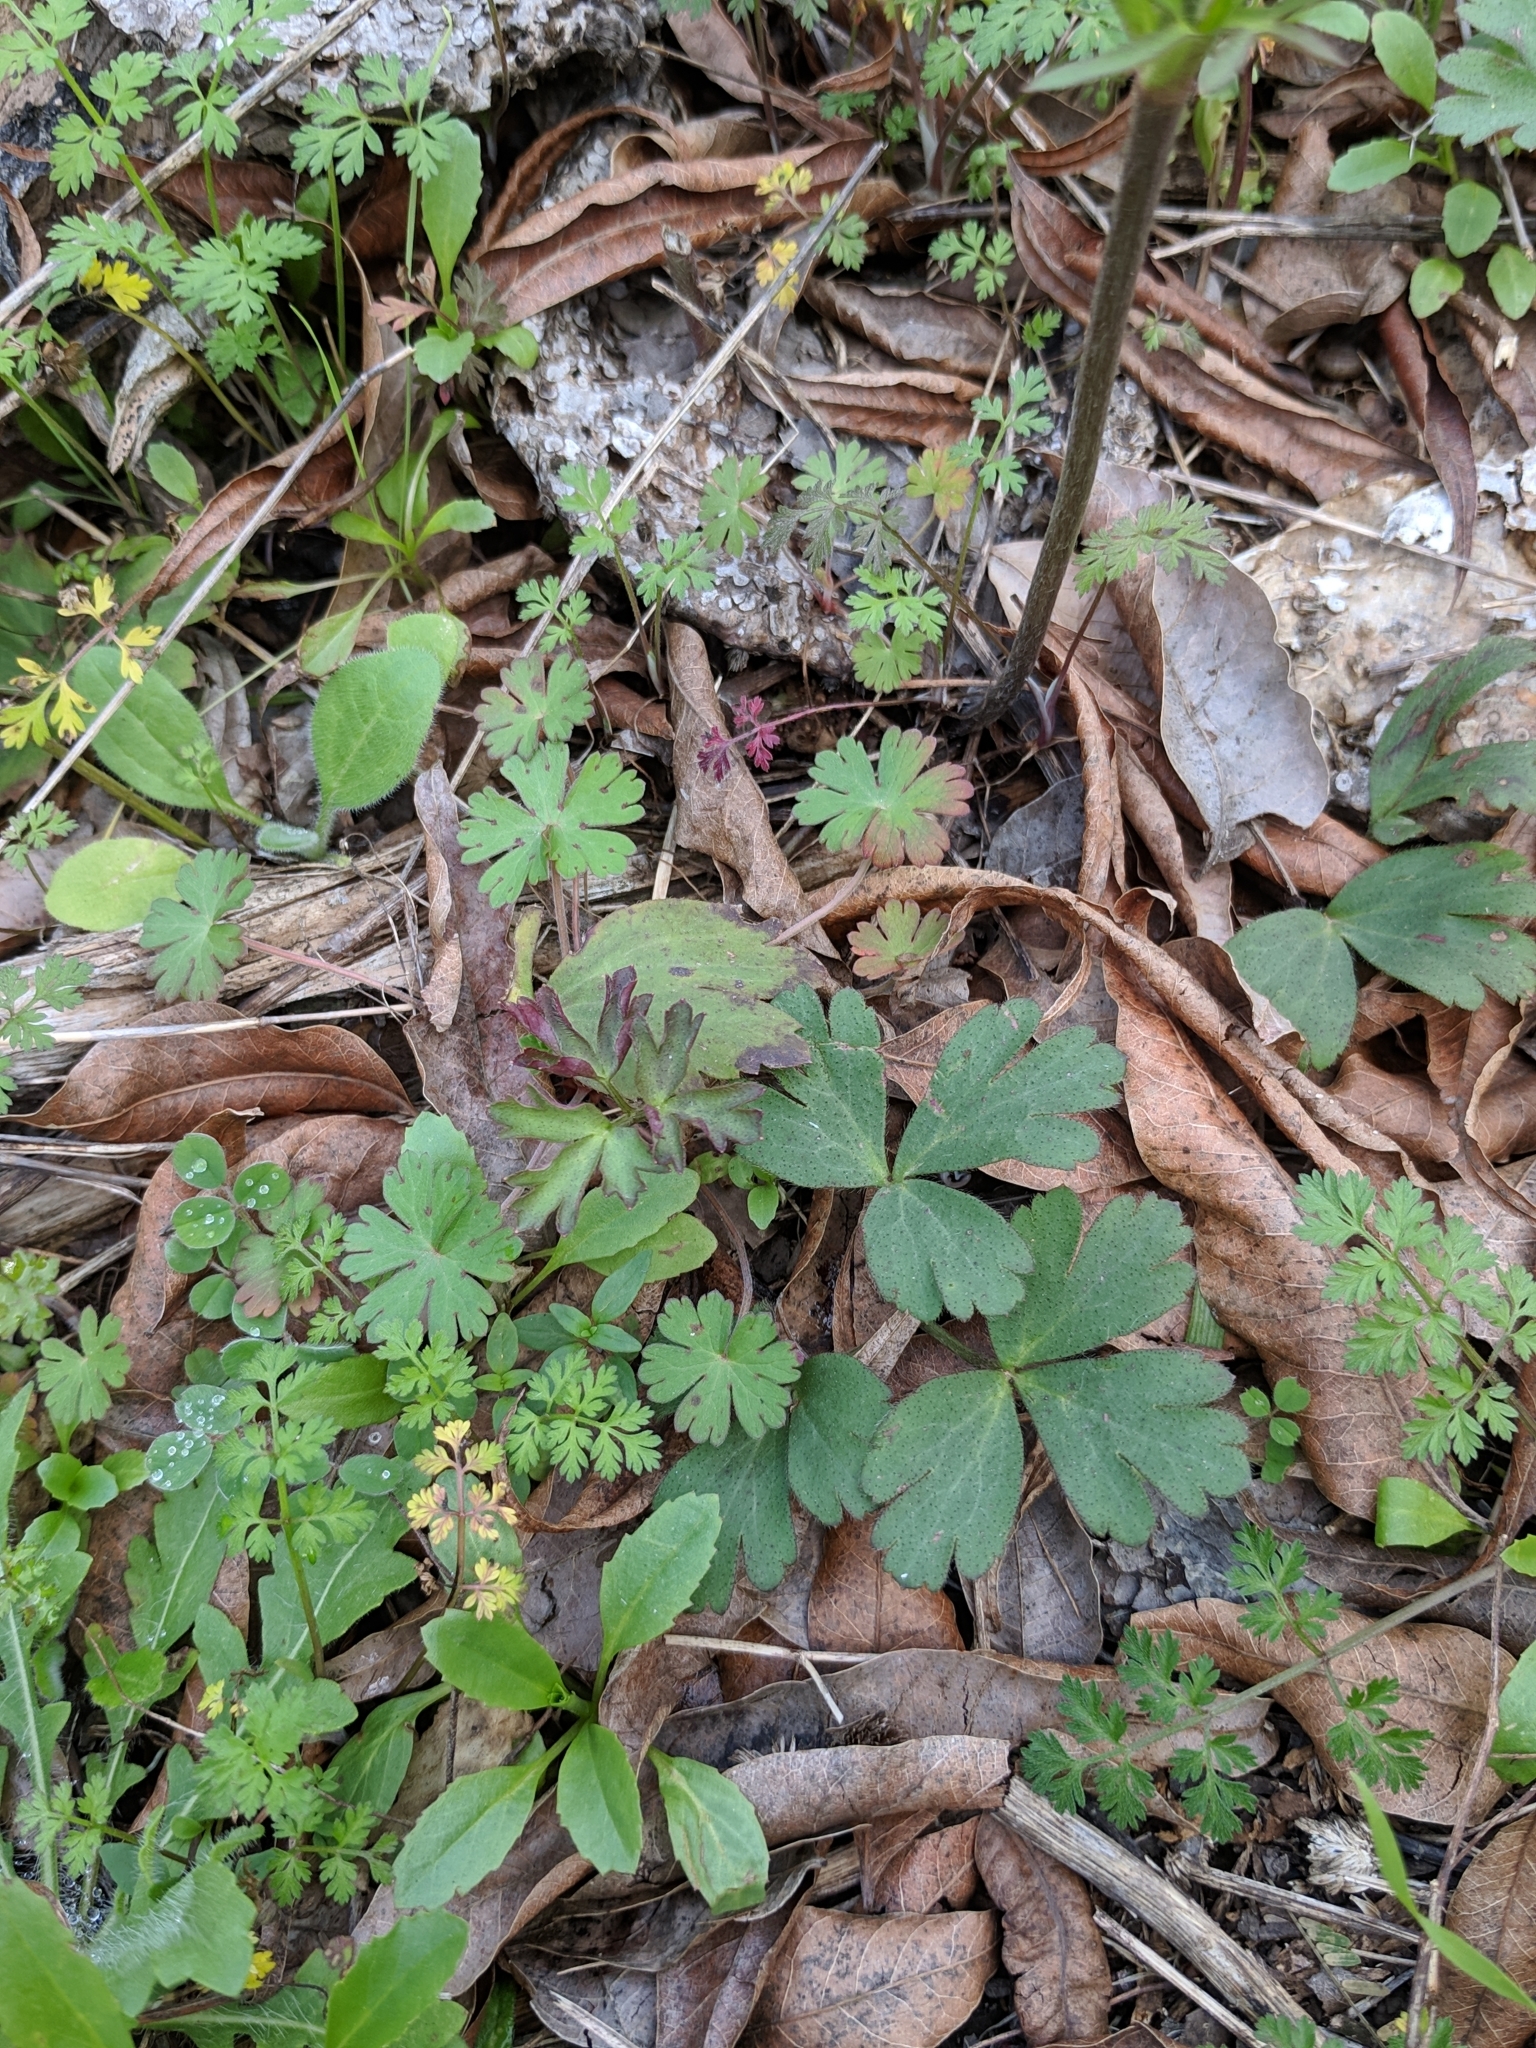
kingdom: Plantae
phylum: Tracheophyta
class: Magnoliopsida
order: Ranunculales
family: Ranunculaceae
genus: Anemone
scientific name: Anemone berlandieri
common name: Ten-petal anemone
